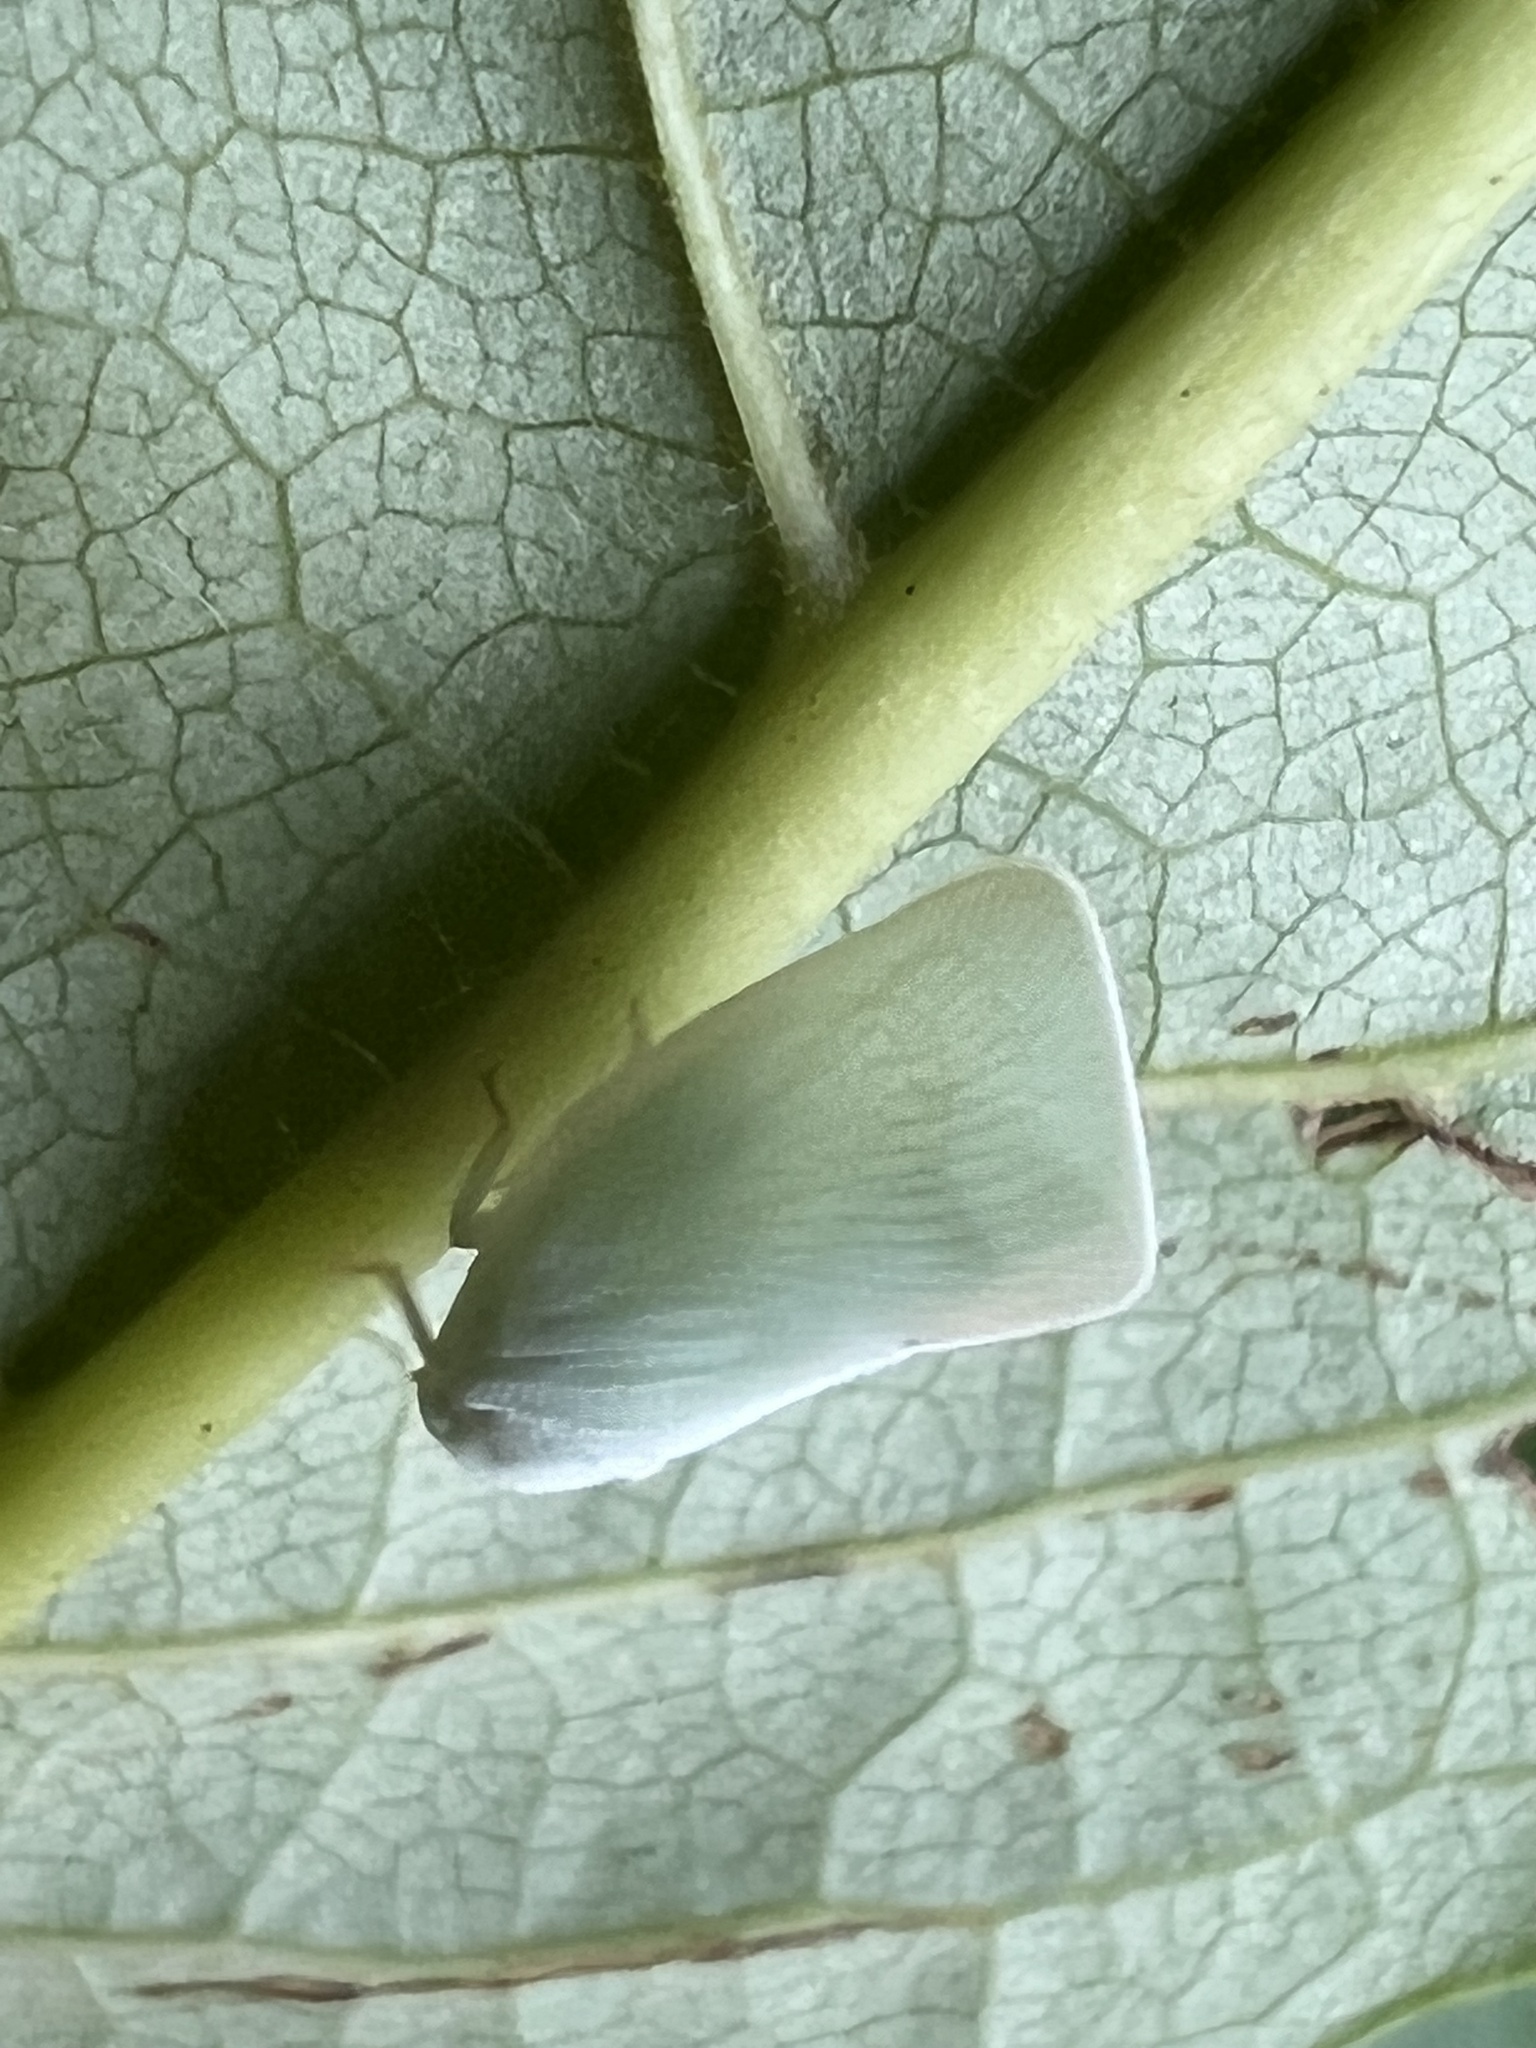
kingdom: Animalia
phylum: Arthropoda
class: Insecta
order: Hemiptera
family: Flatidae
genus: Flatormenis
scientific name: Flatormenis proxima
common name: Northern flatid planthopper
